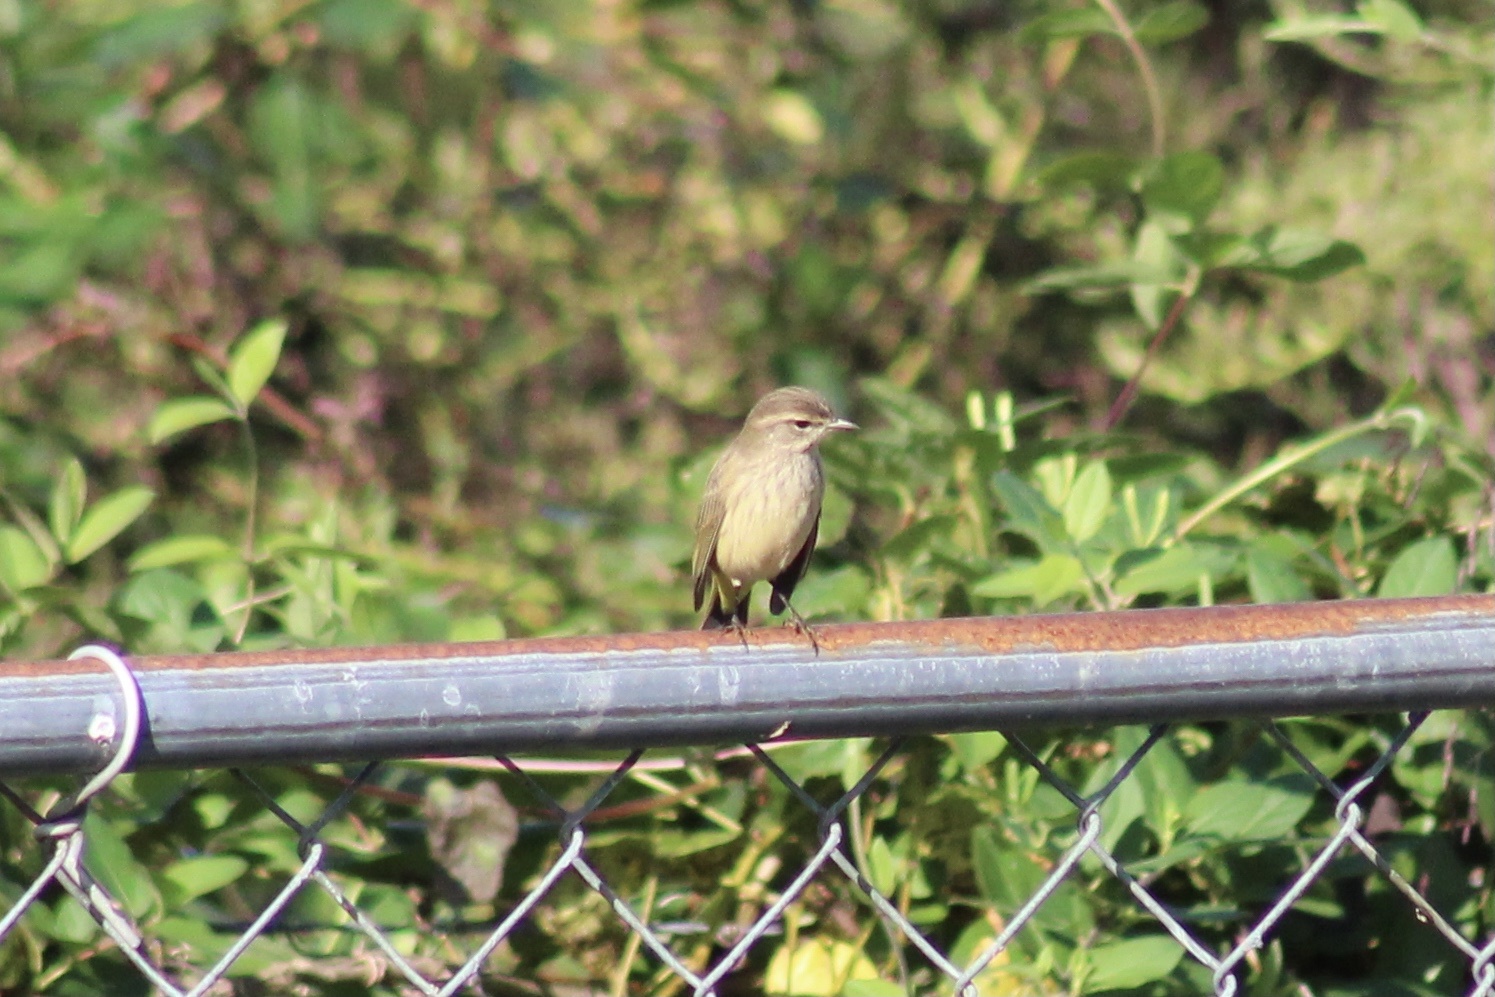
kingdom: Animalia
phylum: Chordata
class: Aves
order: Passeriformes
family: Parulidae
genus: Setophaga
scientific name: Setophaga palmarum
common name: Palm warbler
